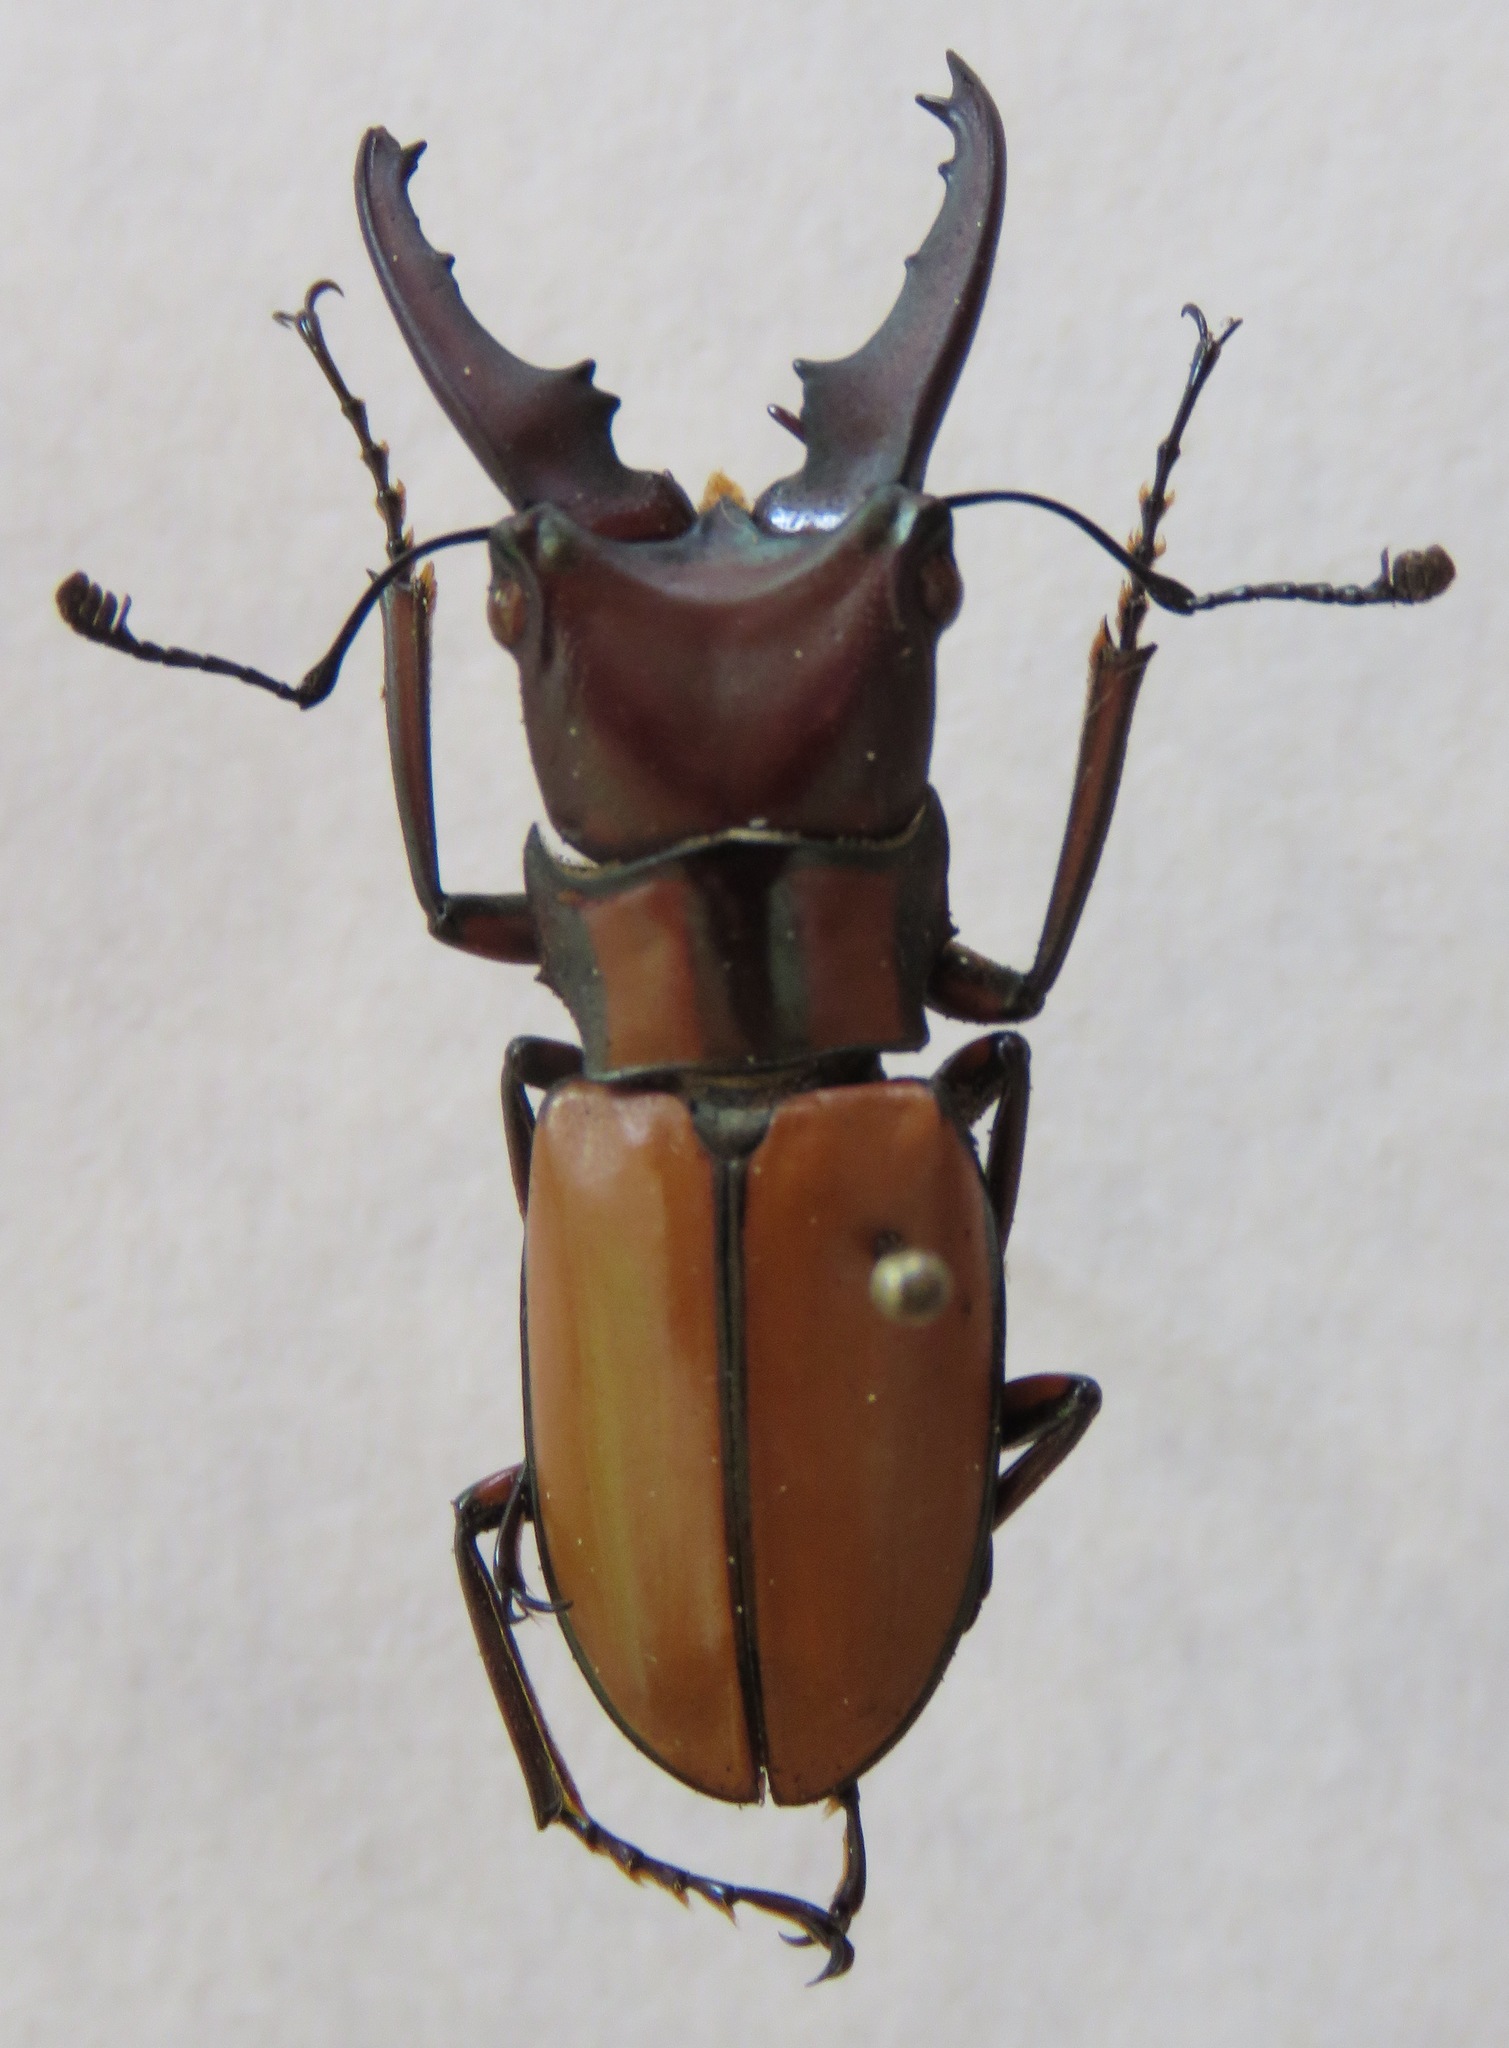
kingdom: Animalia
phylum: Arthropoda
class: Insecta
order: Coleoptera
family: Lucanidae
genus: Cyclommatinus
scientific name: Cyclommatinus albersii
